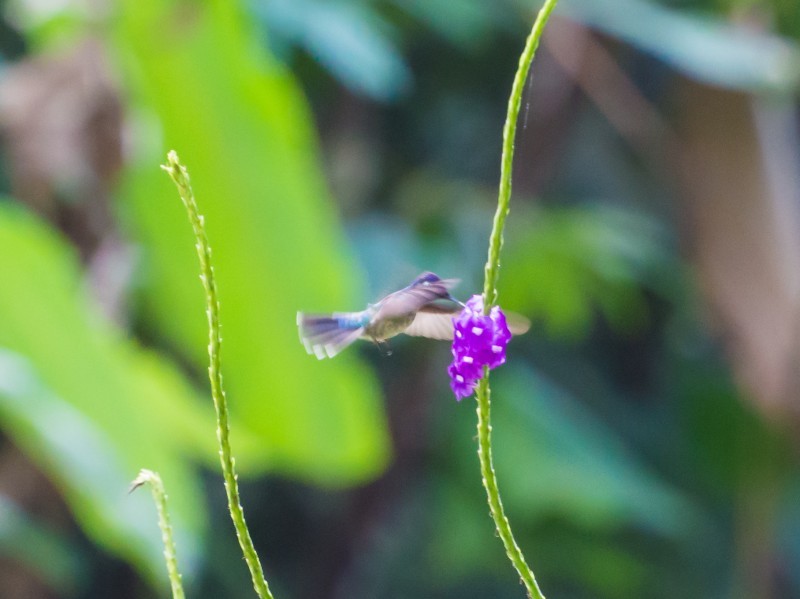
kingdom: Animalia
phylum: Chordata
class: Aves
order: Apodiformes
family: Trochilidae
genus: Klais
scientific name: Klais guimeti
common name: Violet-headed hummingbird
